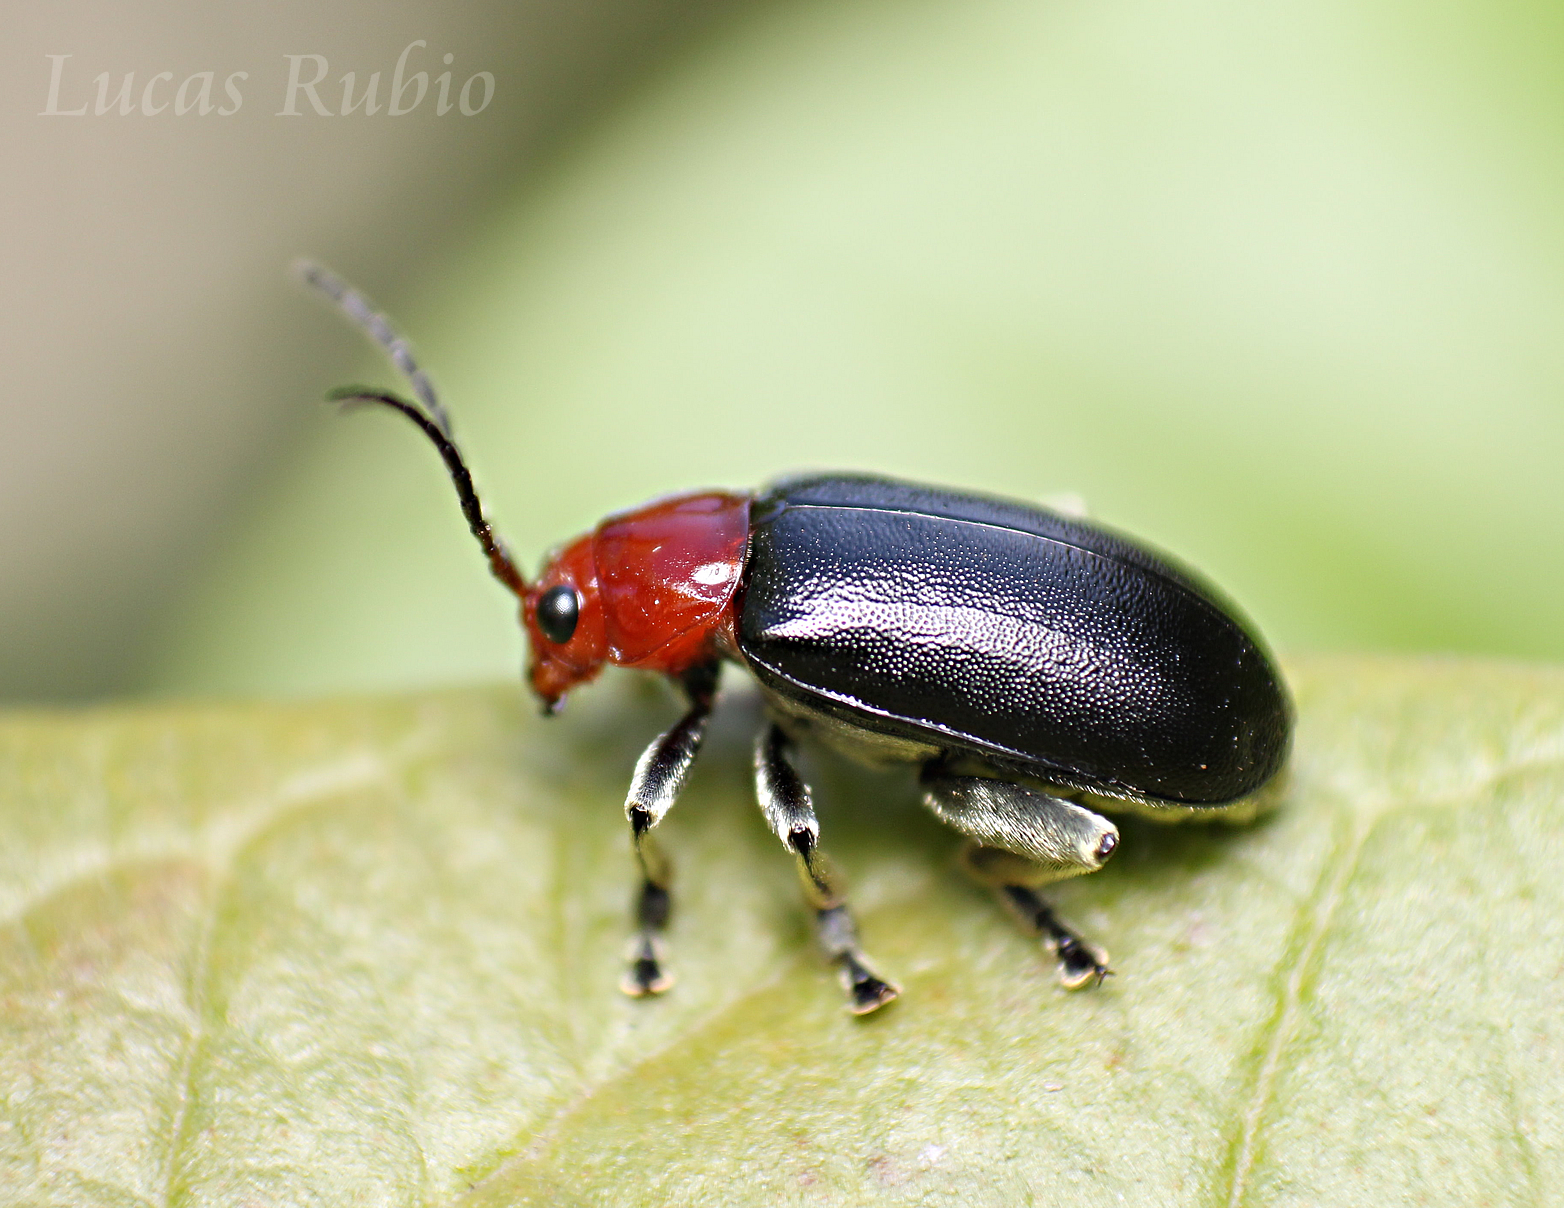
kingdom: Animalia
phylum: Arthropoda
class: Insecta
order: Coleoptera
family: Chrysomelidae
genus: Cacoscelis
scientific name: Cacoscelis
